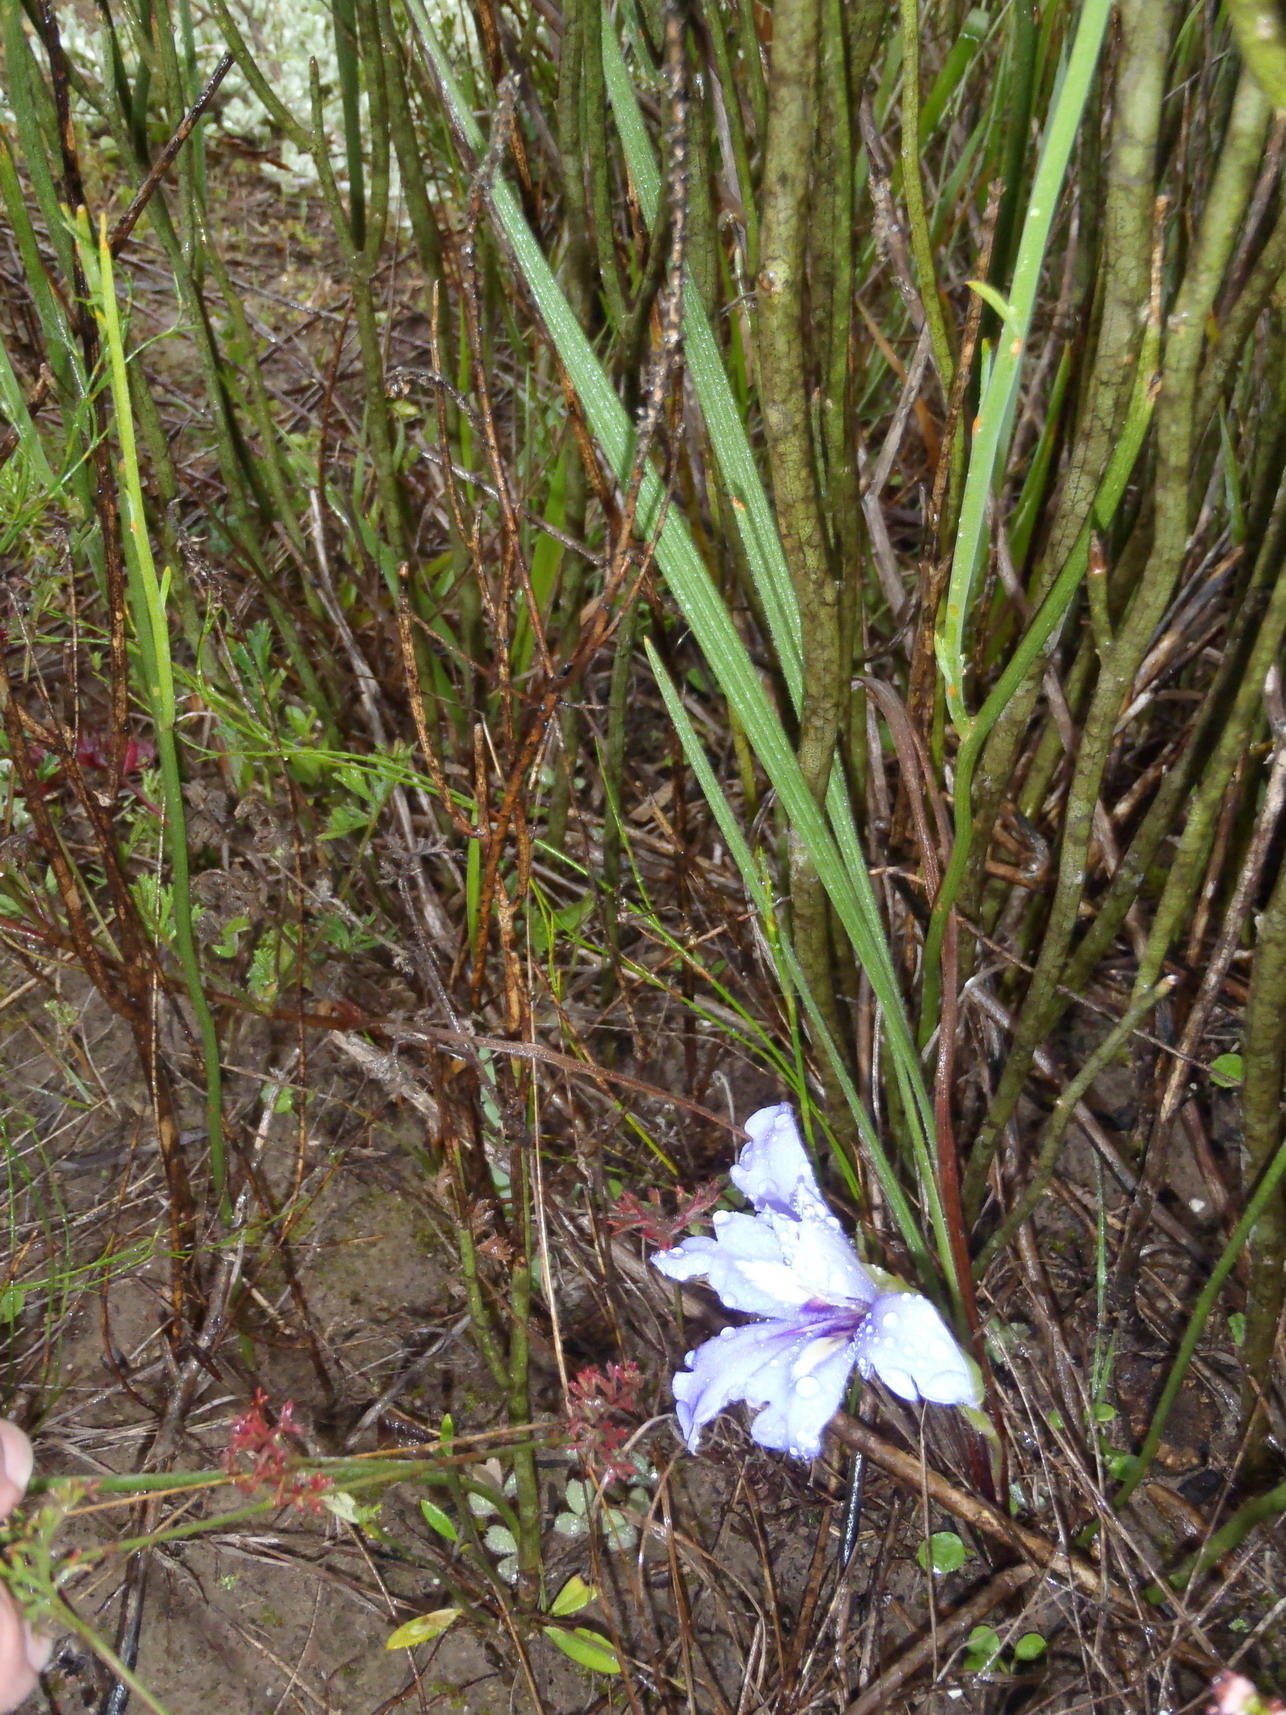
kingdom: Plantae
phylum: Tracheophyta
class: Liliopsida
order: Asparagales
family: Iridaceae
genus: Babiana
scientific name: Babiana sambucina
